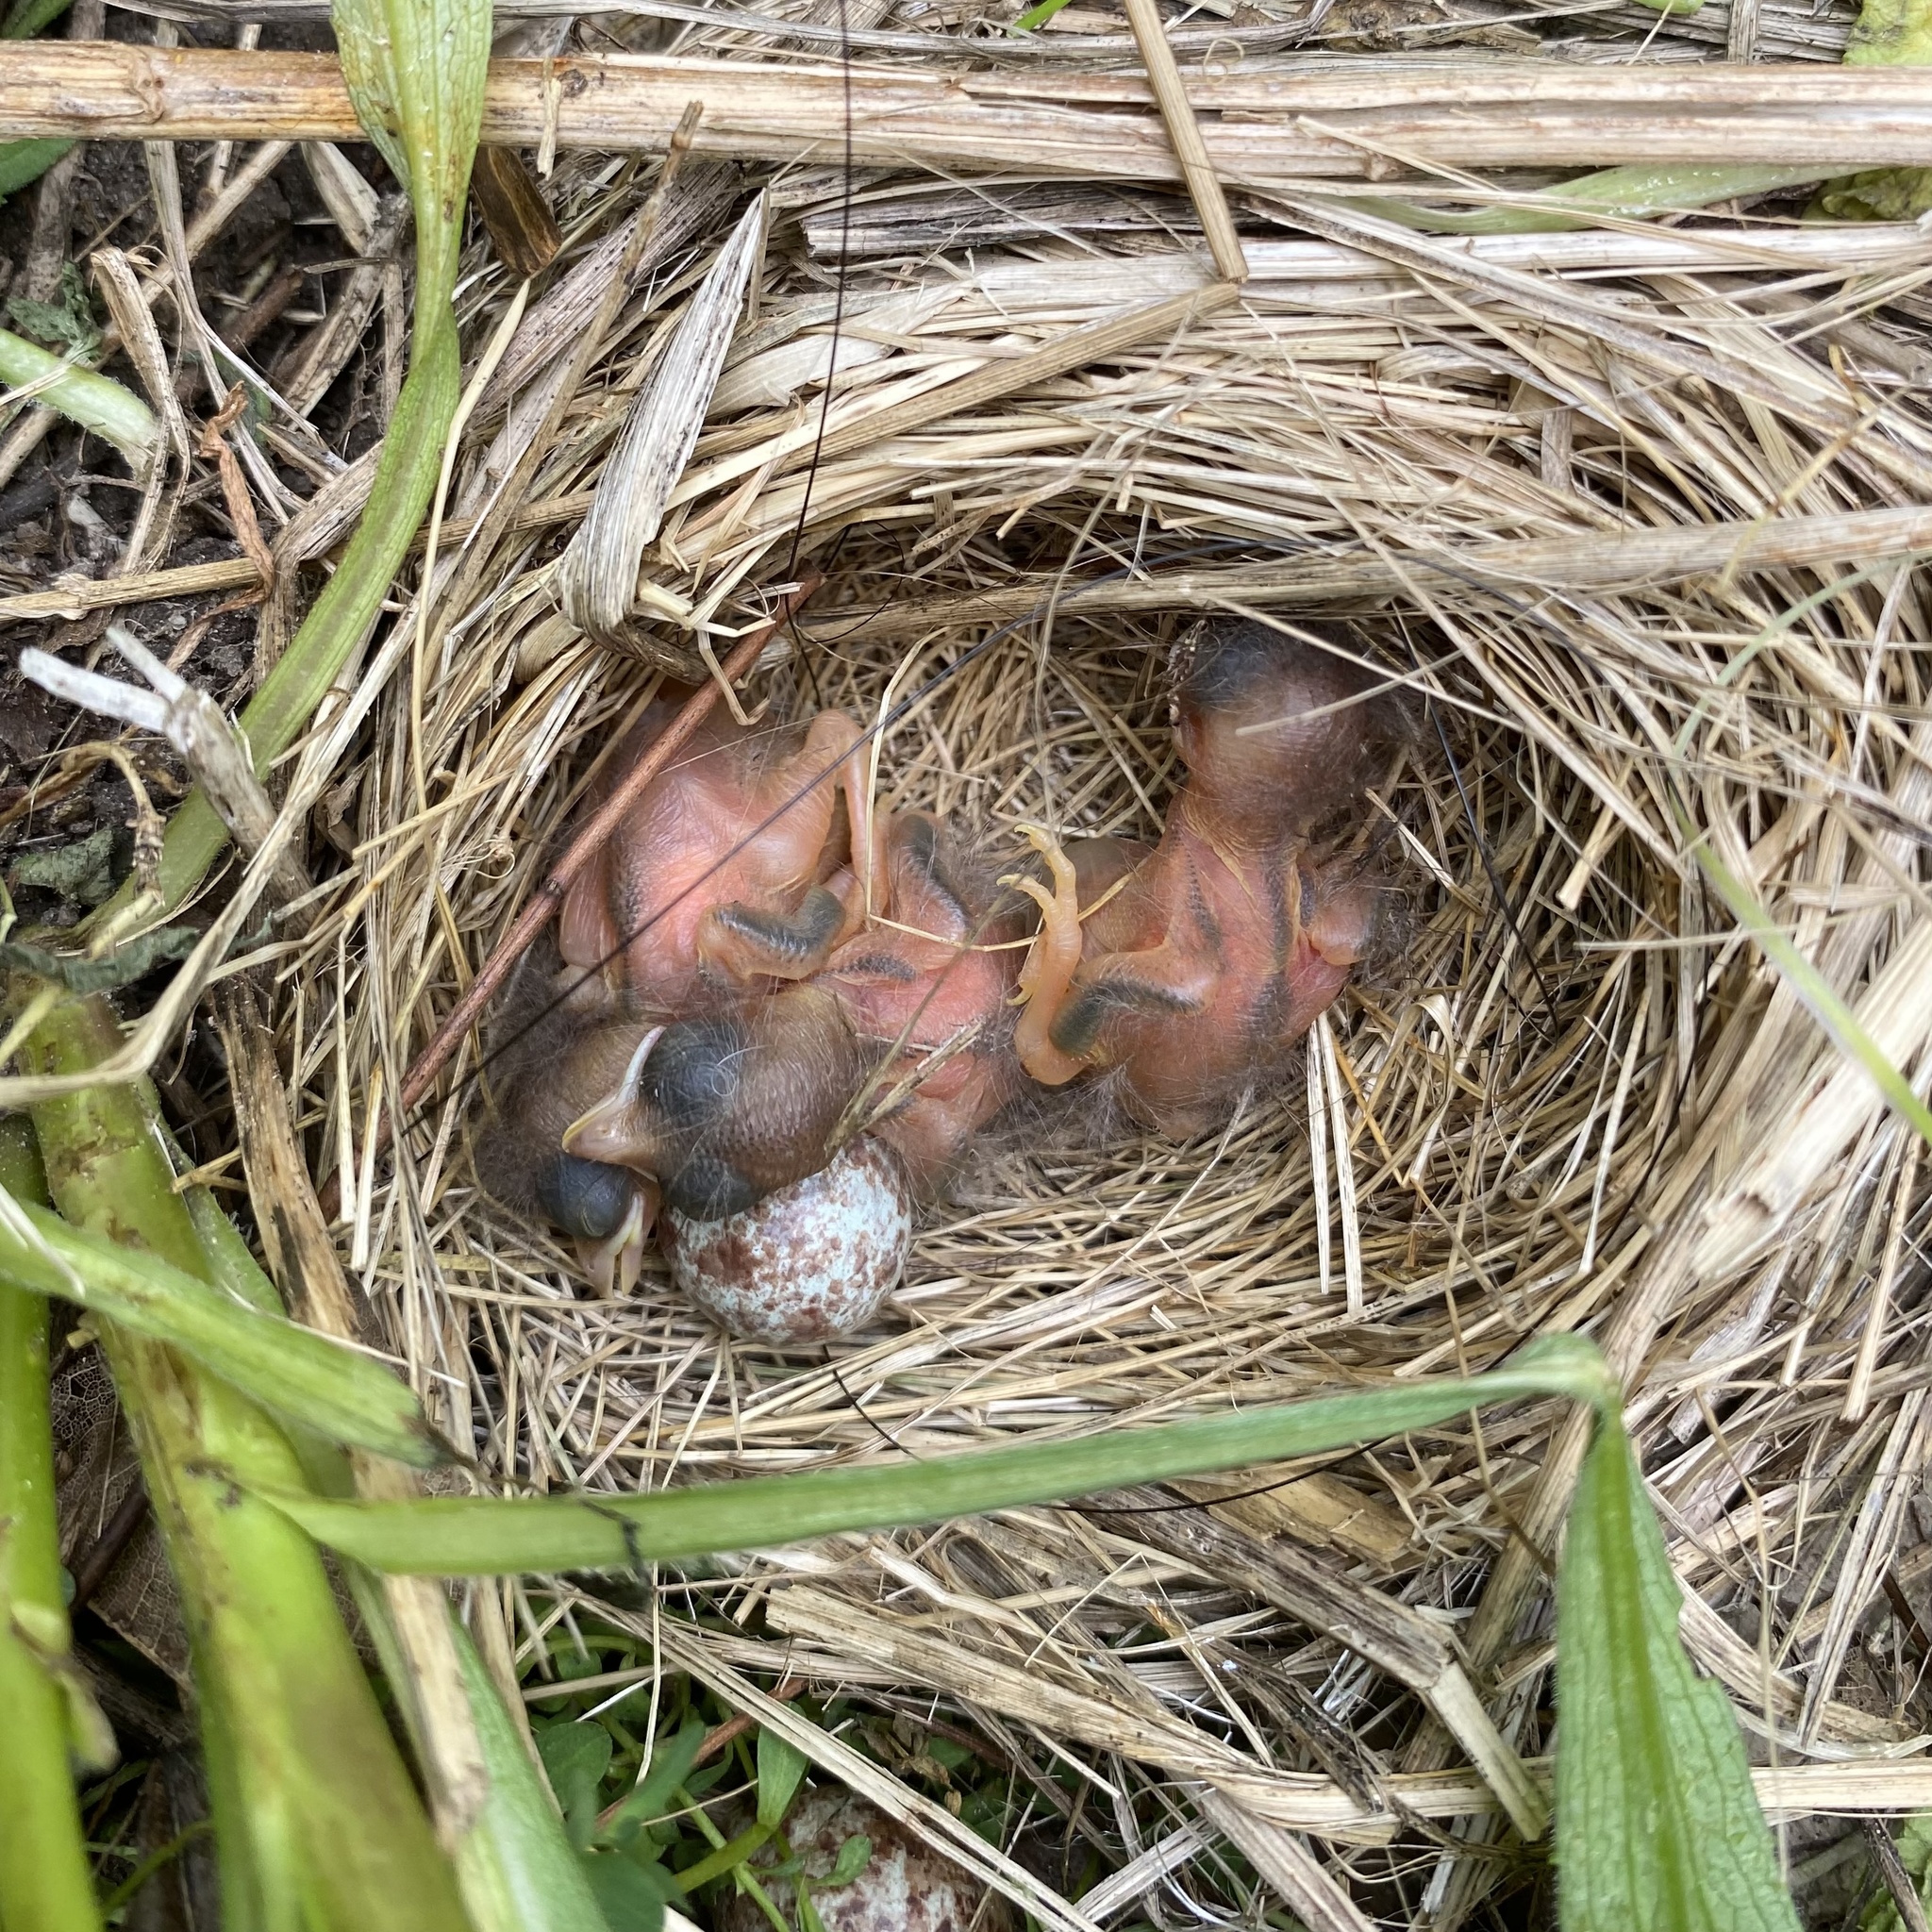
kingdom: Animalia
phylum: Chordata
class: Aves
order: Passeriformes
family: Passerellidae
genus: Melospiza
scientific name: Melospiza melodia
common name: Song sparrow
